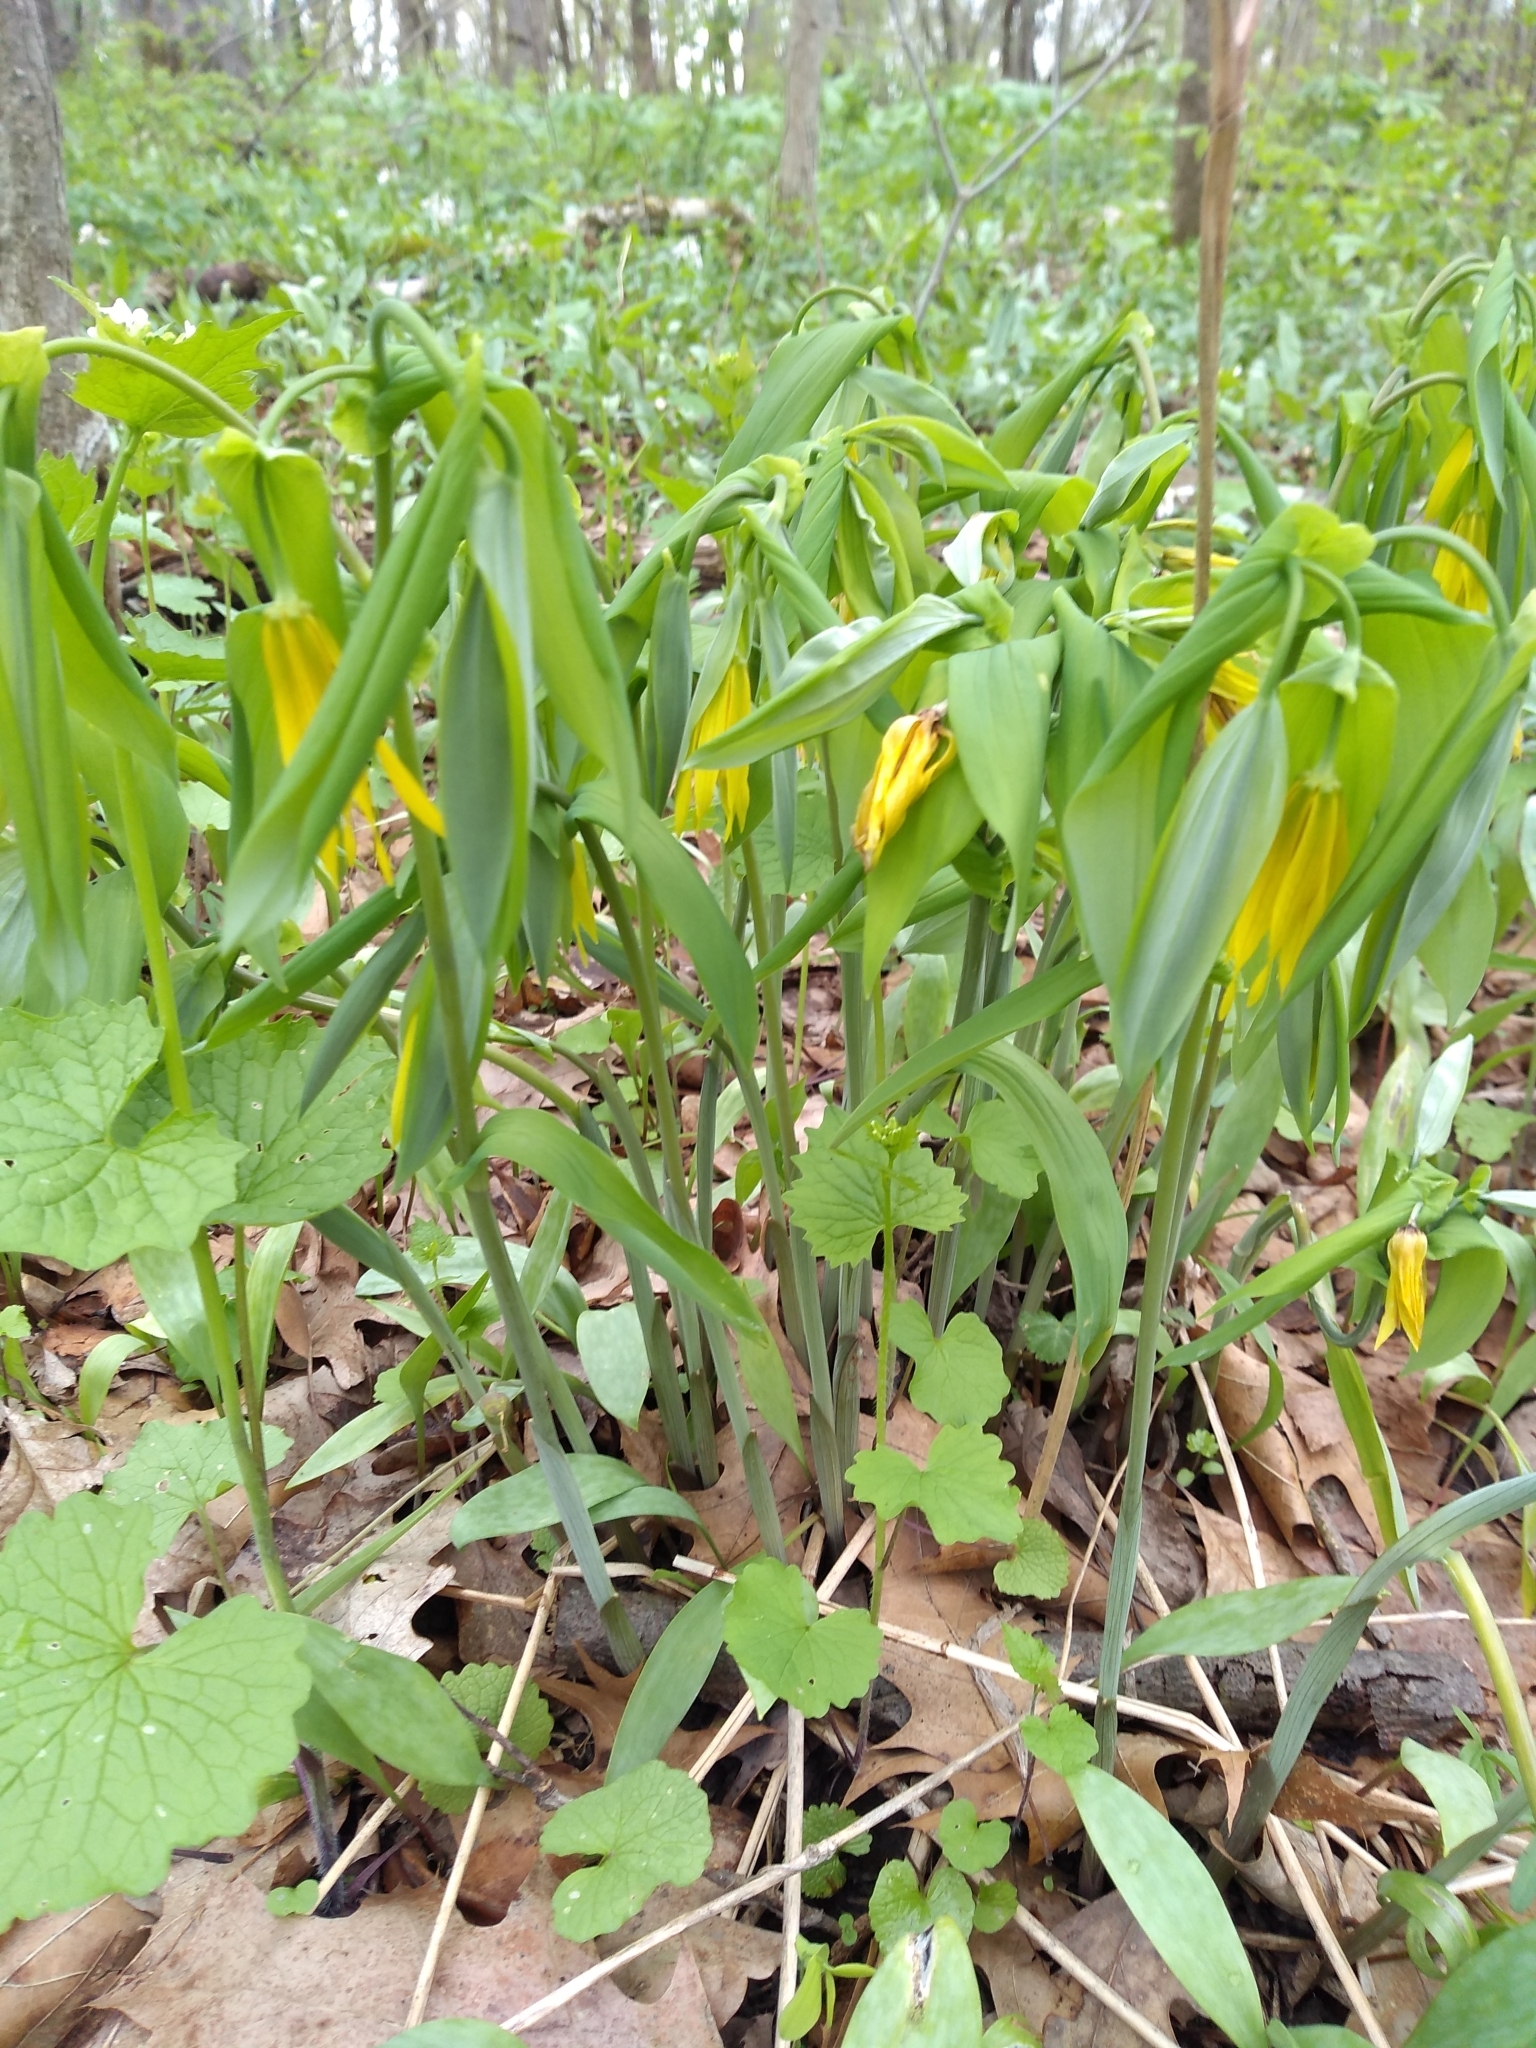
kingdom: Plantae
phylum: Tracheophyta
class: Liliopsida
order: Liliales
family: Colchicaceae
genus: Uvularia
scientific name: Uvularia grandiflora
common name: Bellwort
